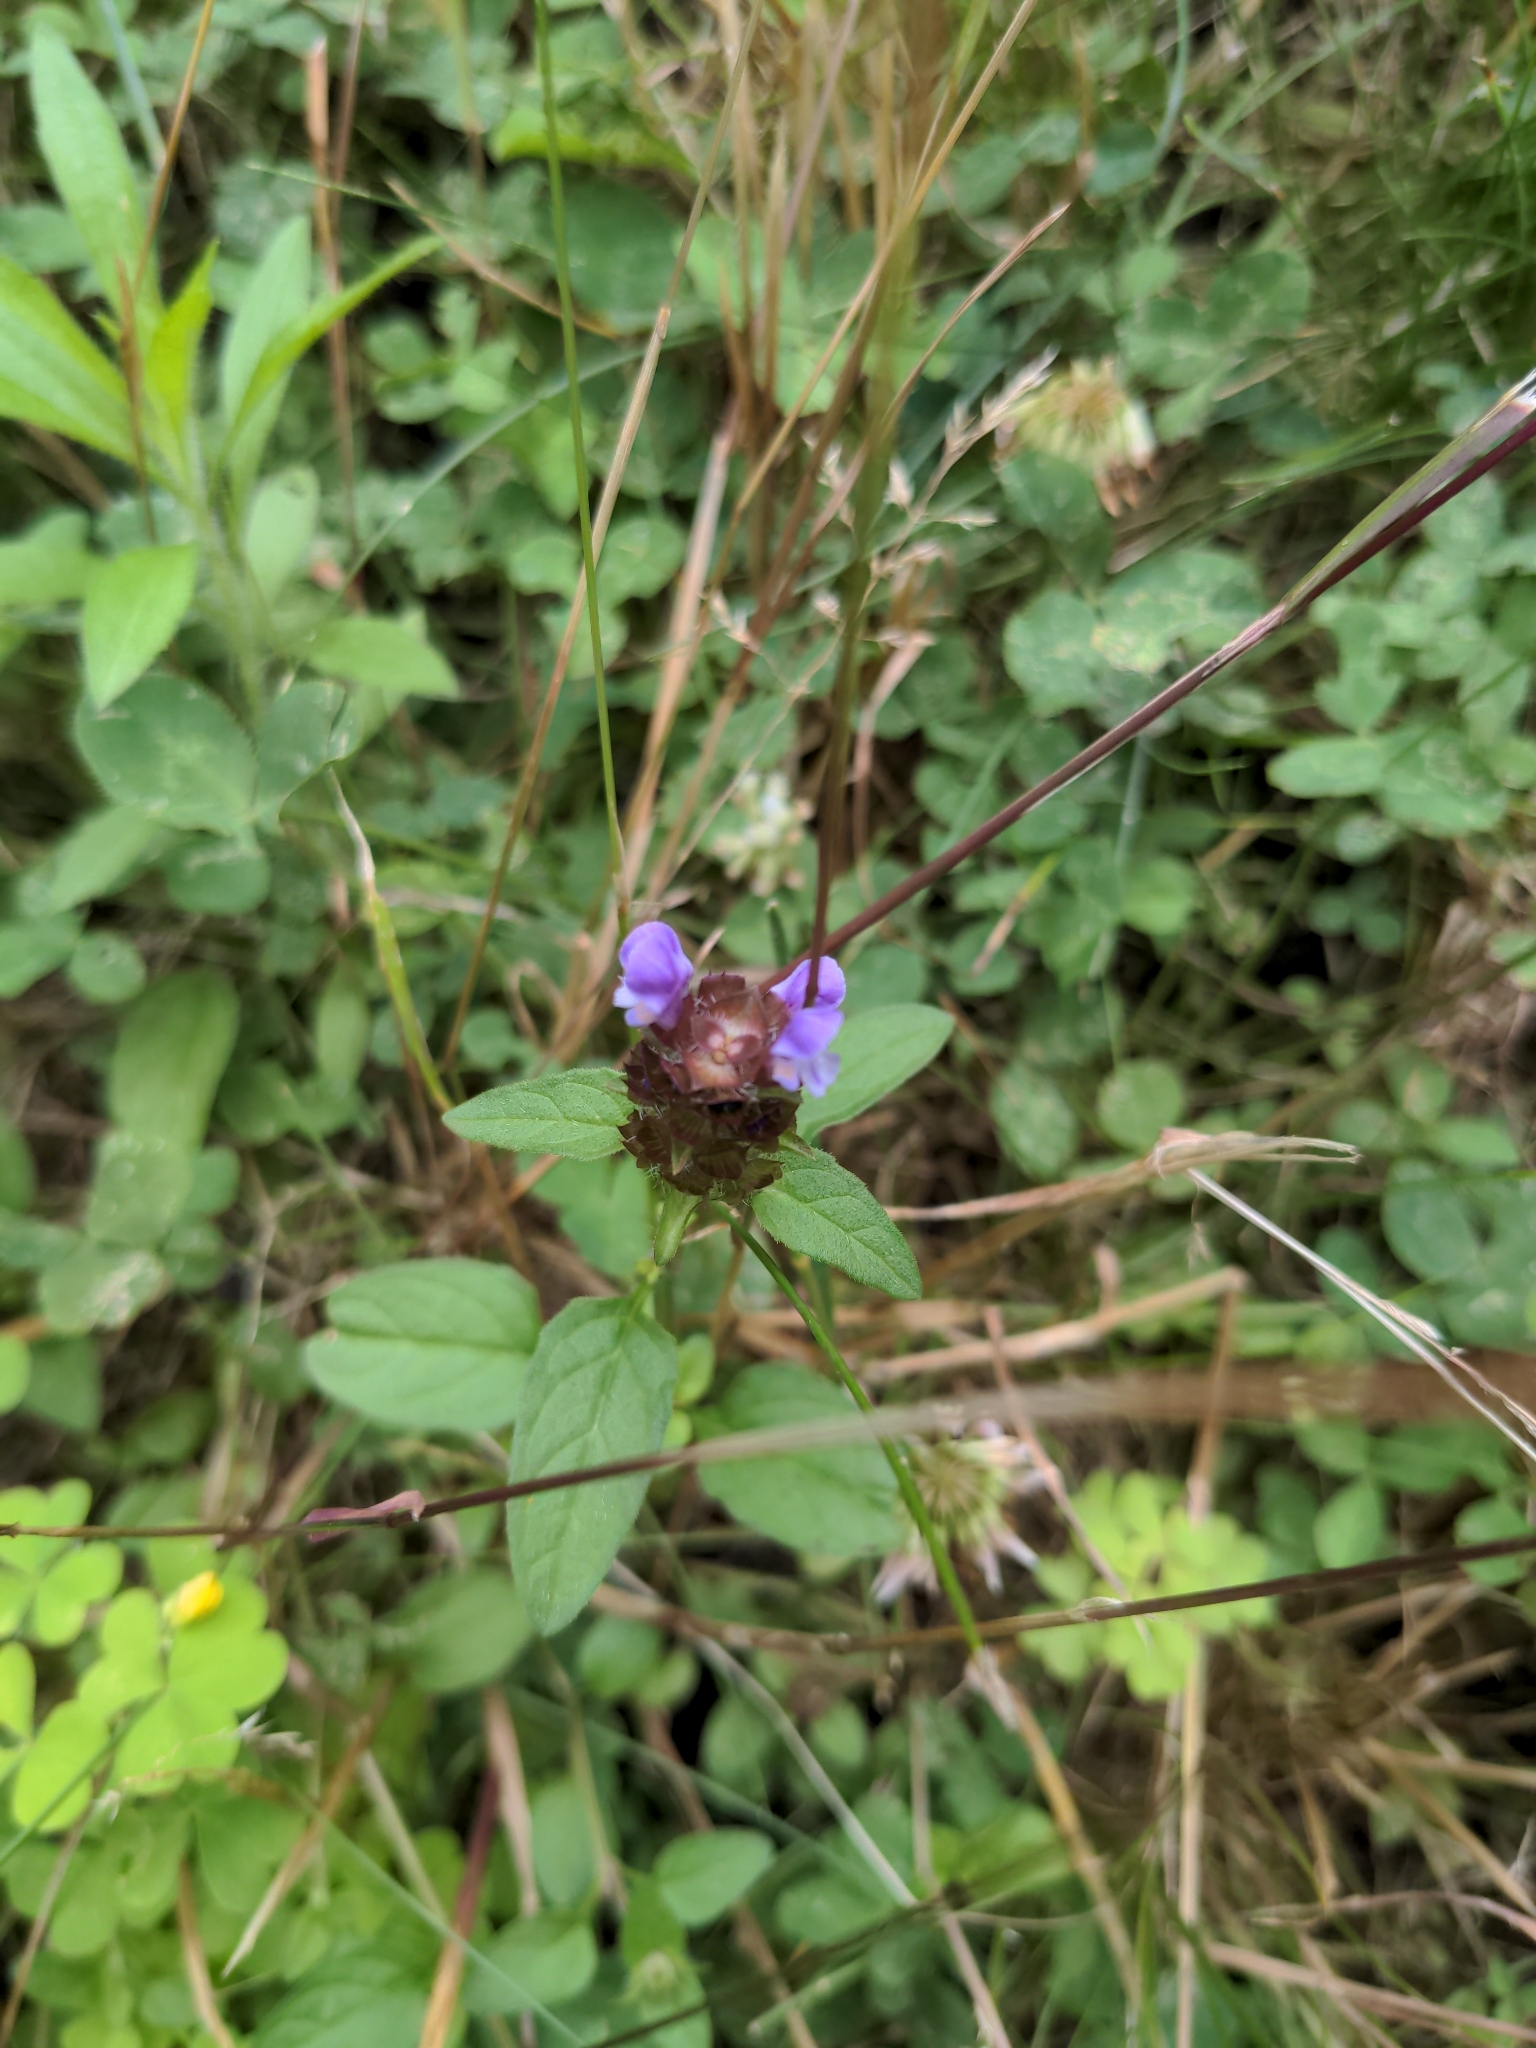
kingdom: Plantae
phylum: Tracheophyta
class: Magnoliopsida
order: Lamiales
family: Lamiaceae
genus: Prunella
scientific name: Prunella vulgaris
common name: Heal-all
